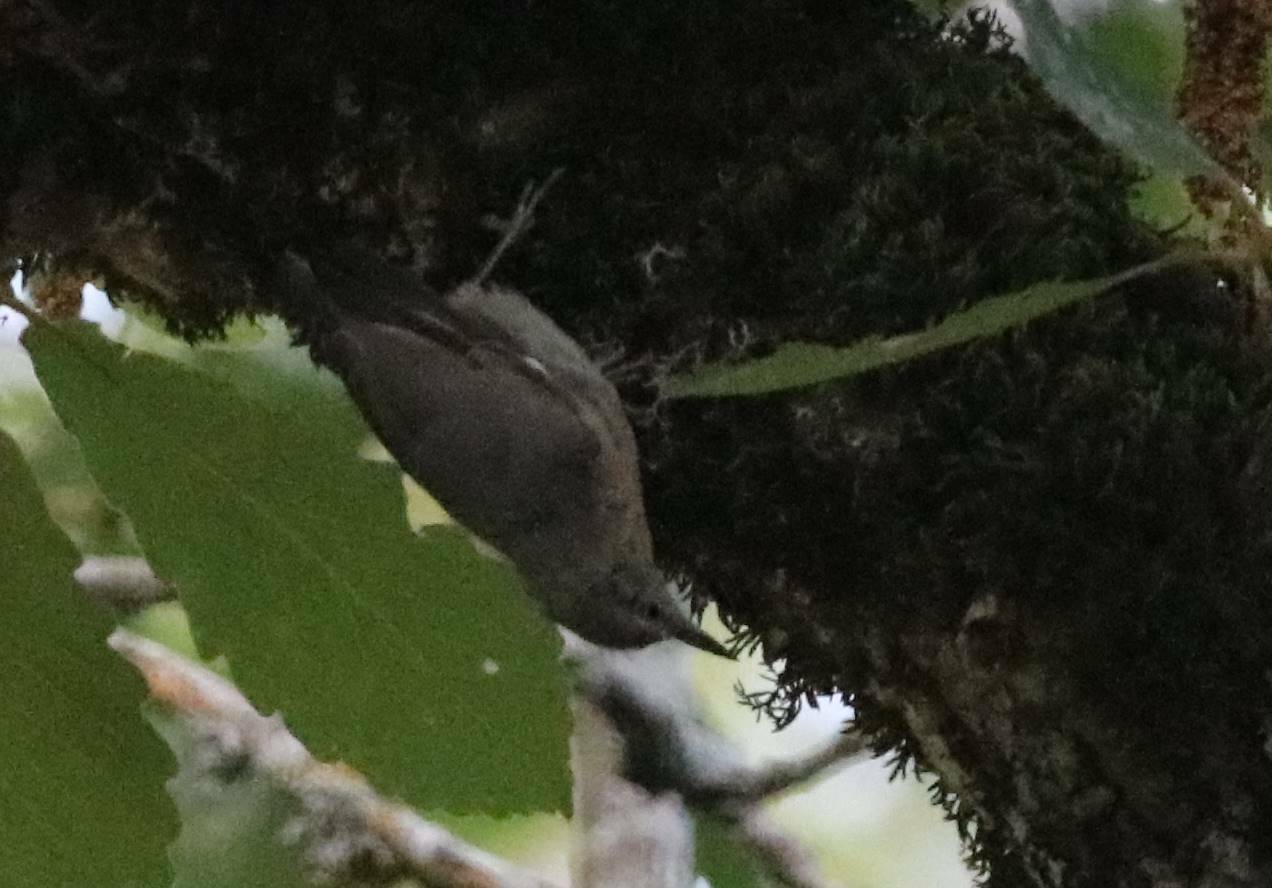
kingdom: Animalia
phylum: Chordata
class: Aves
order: Passeriformes
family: Sittidae
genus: Sitta
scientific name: Sitta ledanti
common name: Algerian nuthatch
